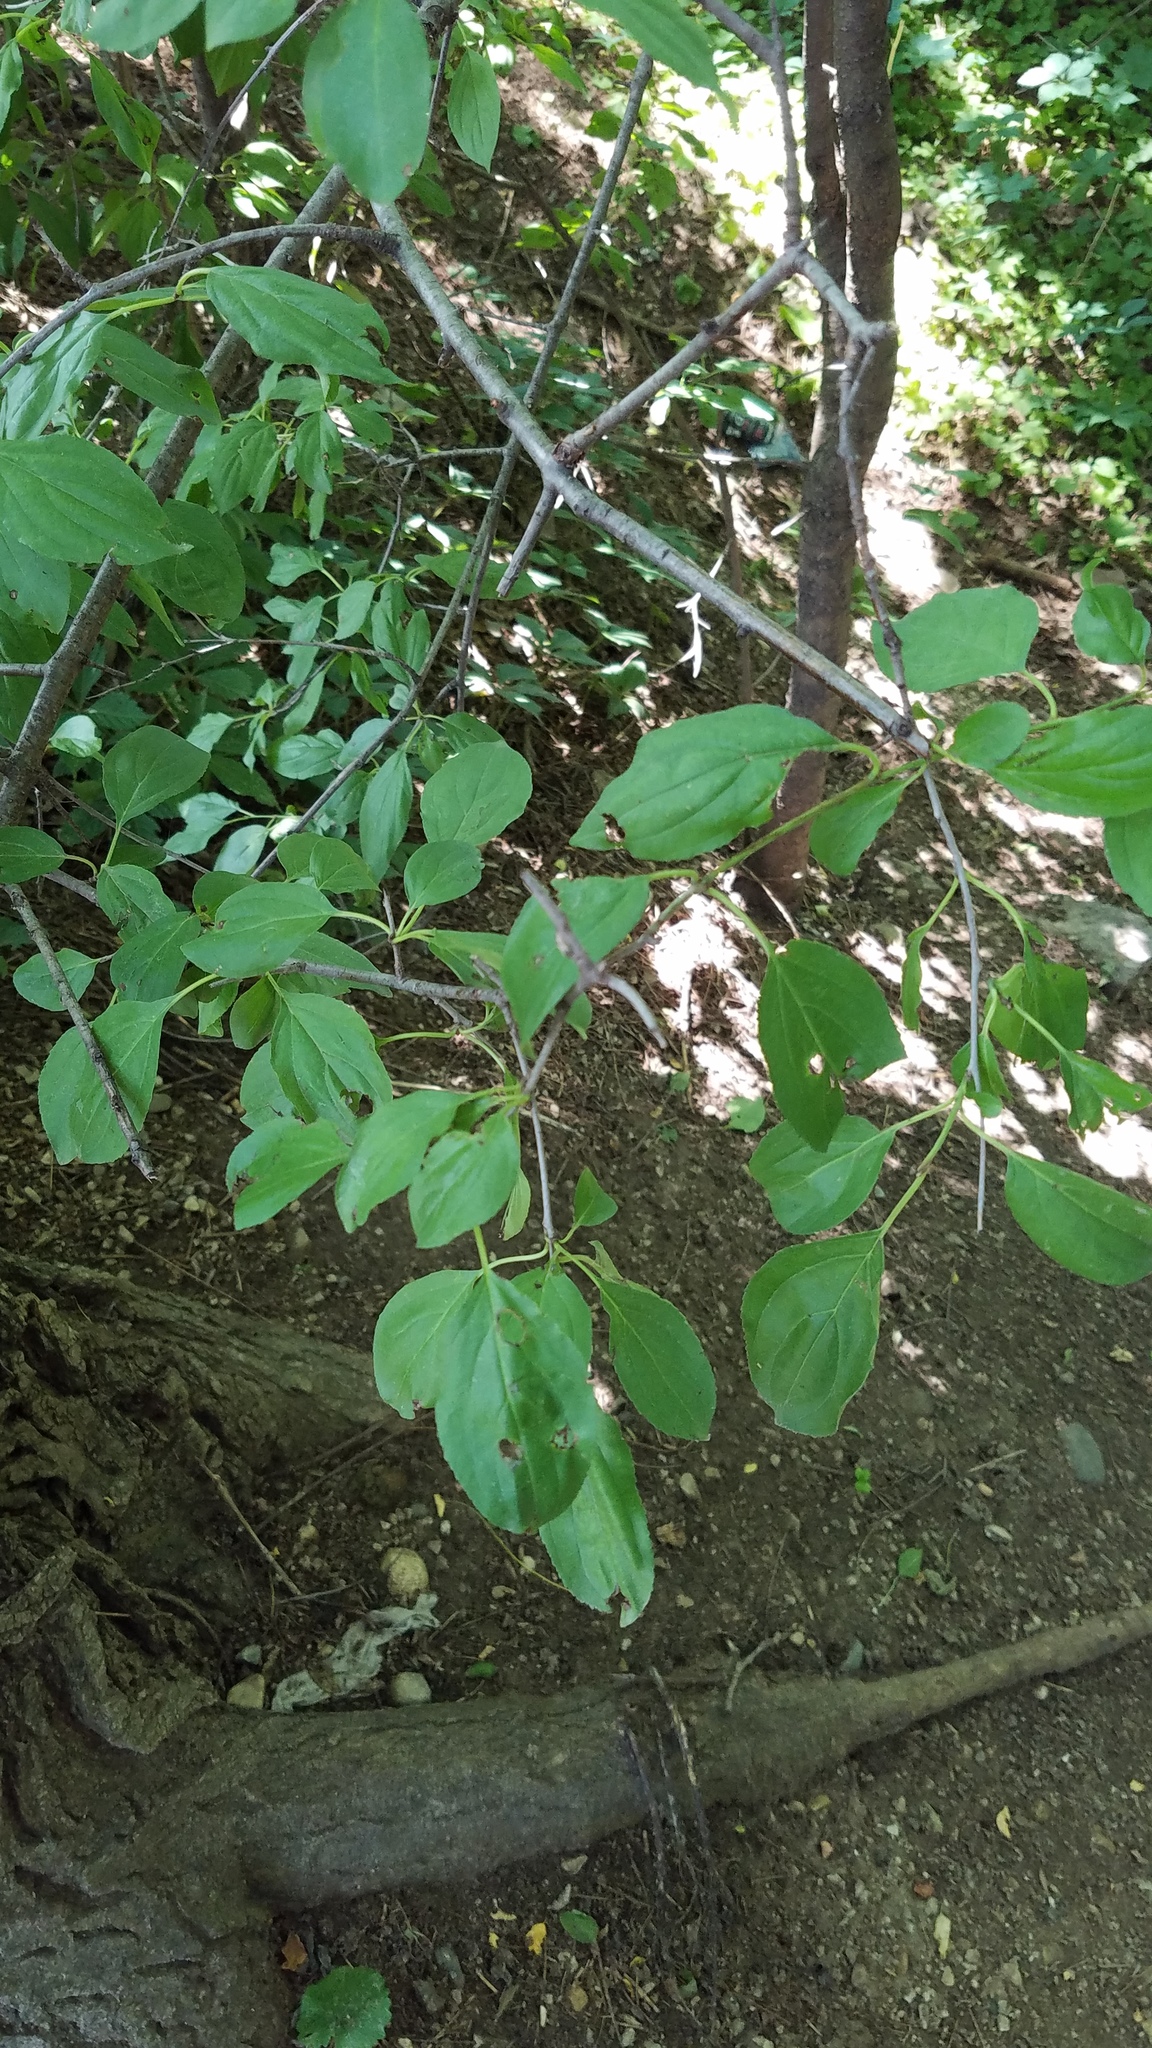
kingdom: Plantae
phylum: Tracheophyta
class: Magnoliopsida
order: Rosales
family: Rhamnaceae
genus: Rhamnus
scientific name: Rhamnus cathartica
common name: Common buckthorn
